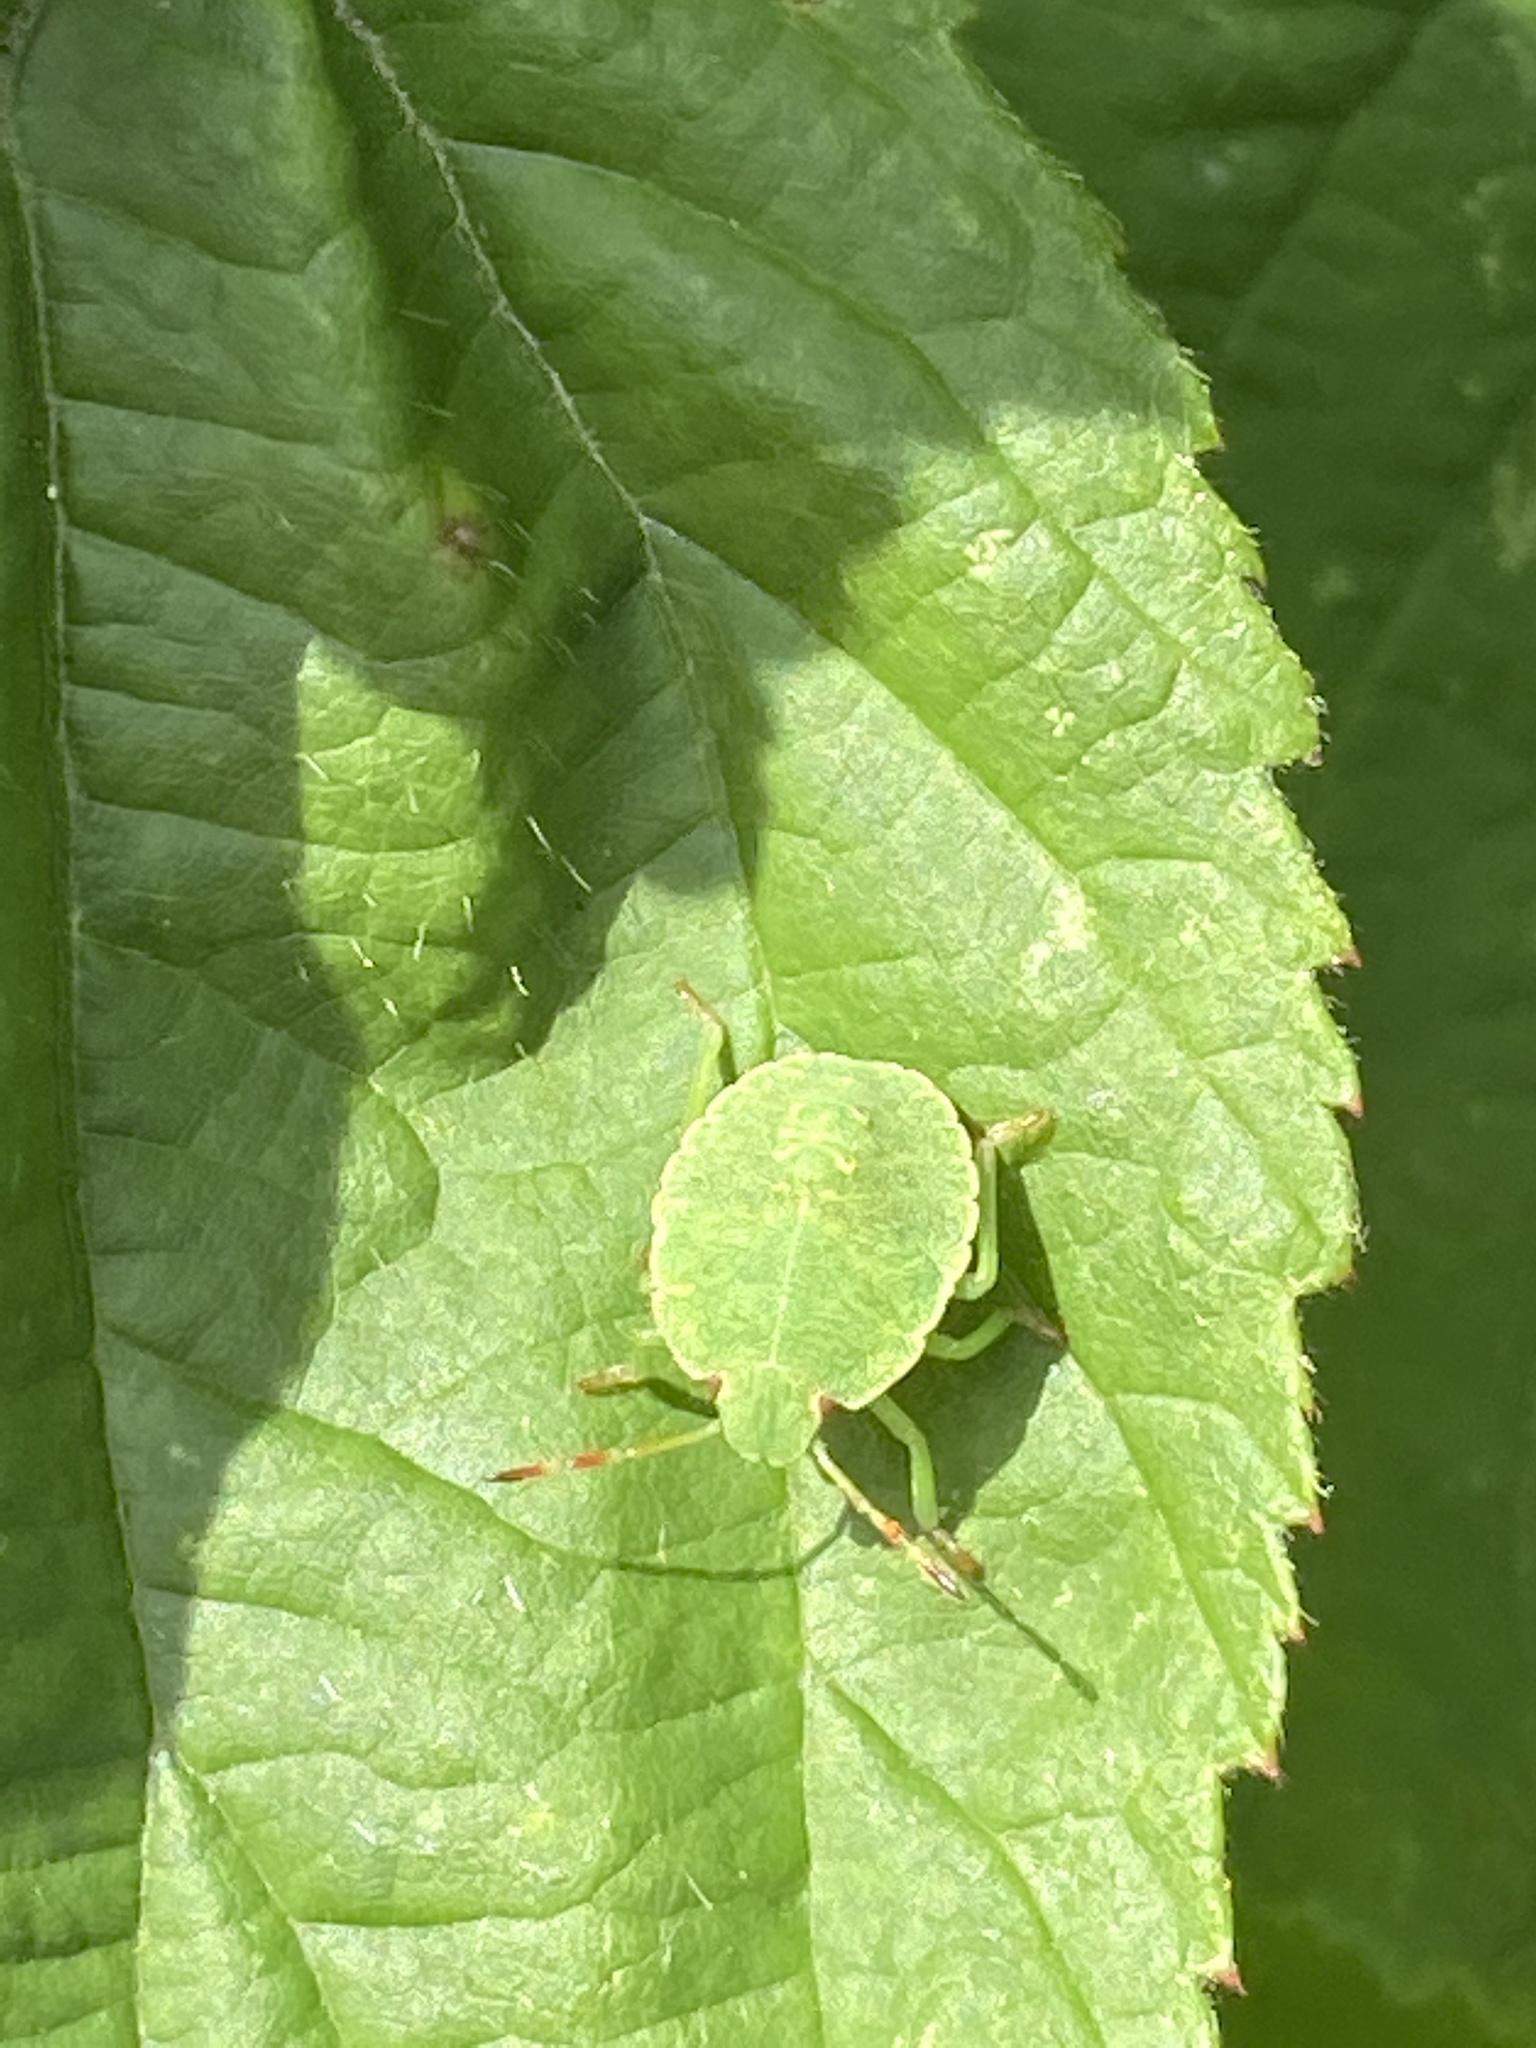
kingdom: Animalia
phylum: Arthropoda
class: Insecta
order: Hemiptera
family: Pentatomidae
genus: Palomena
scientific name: Palomena prasina
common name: Green shieldbug
